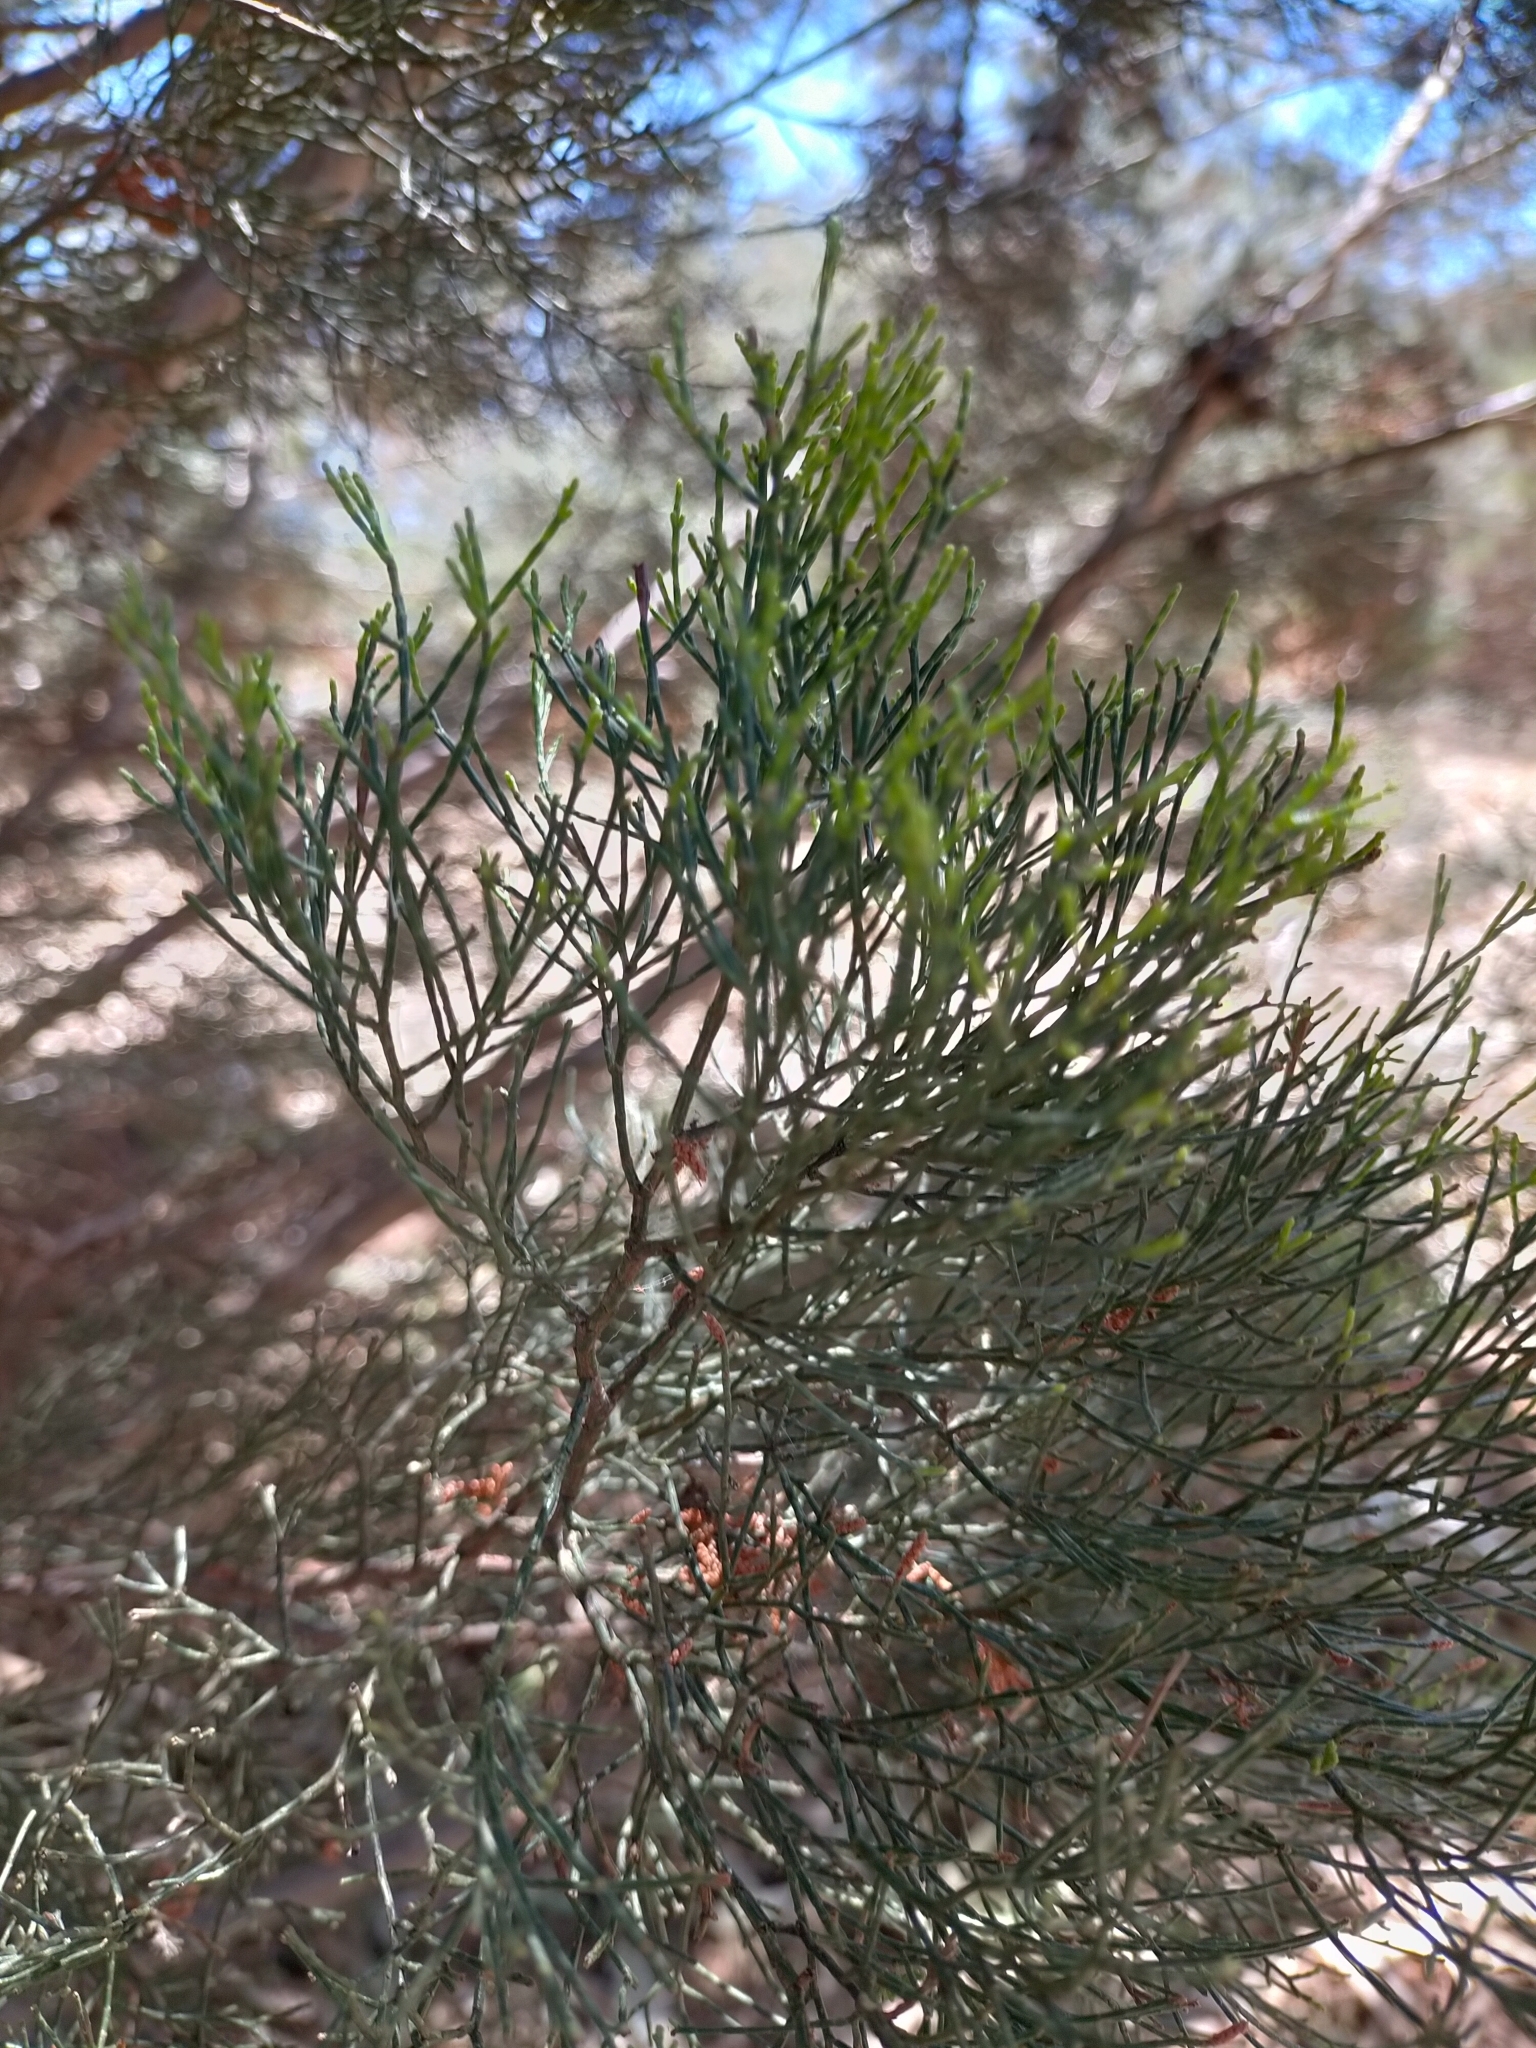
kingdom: Plantae
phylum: Tracheophyta
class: Pinopsida
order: Pinales
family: Cupressaceae
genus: Callitris
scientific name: Callitris preissii
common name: Mallee pine
